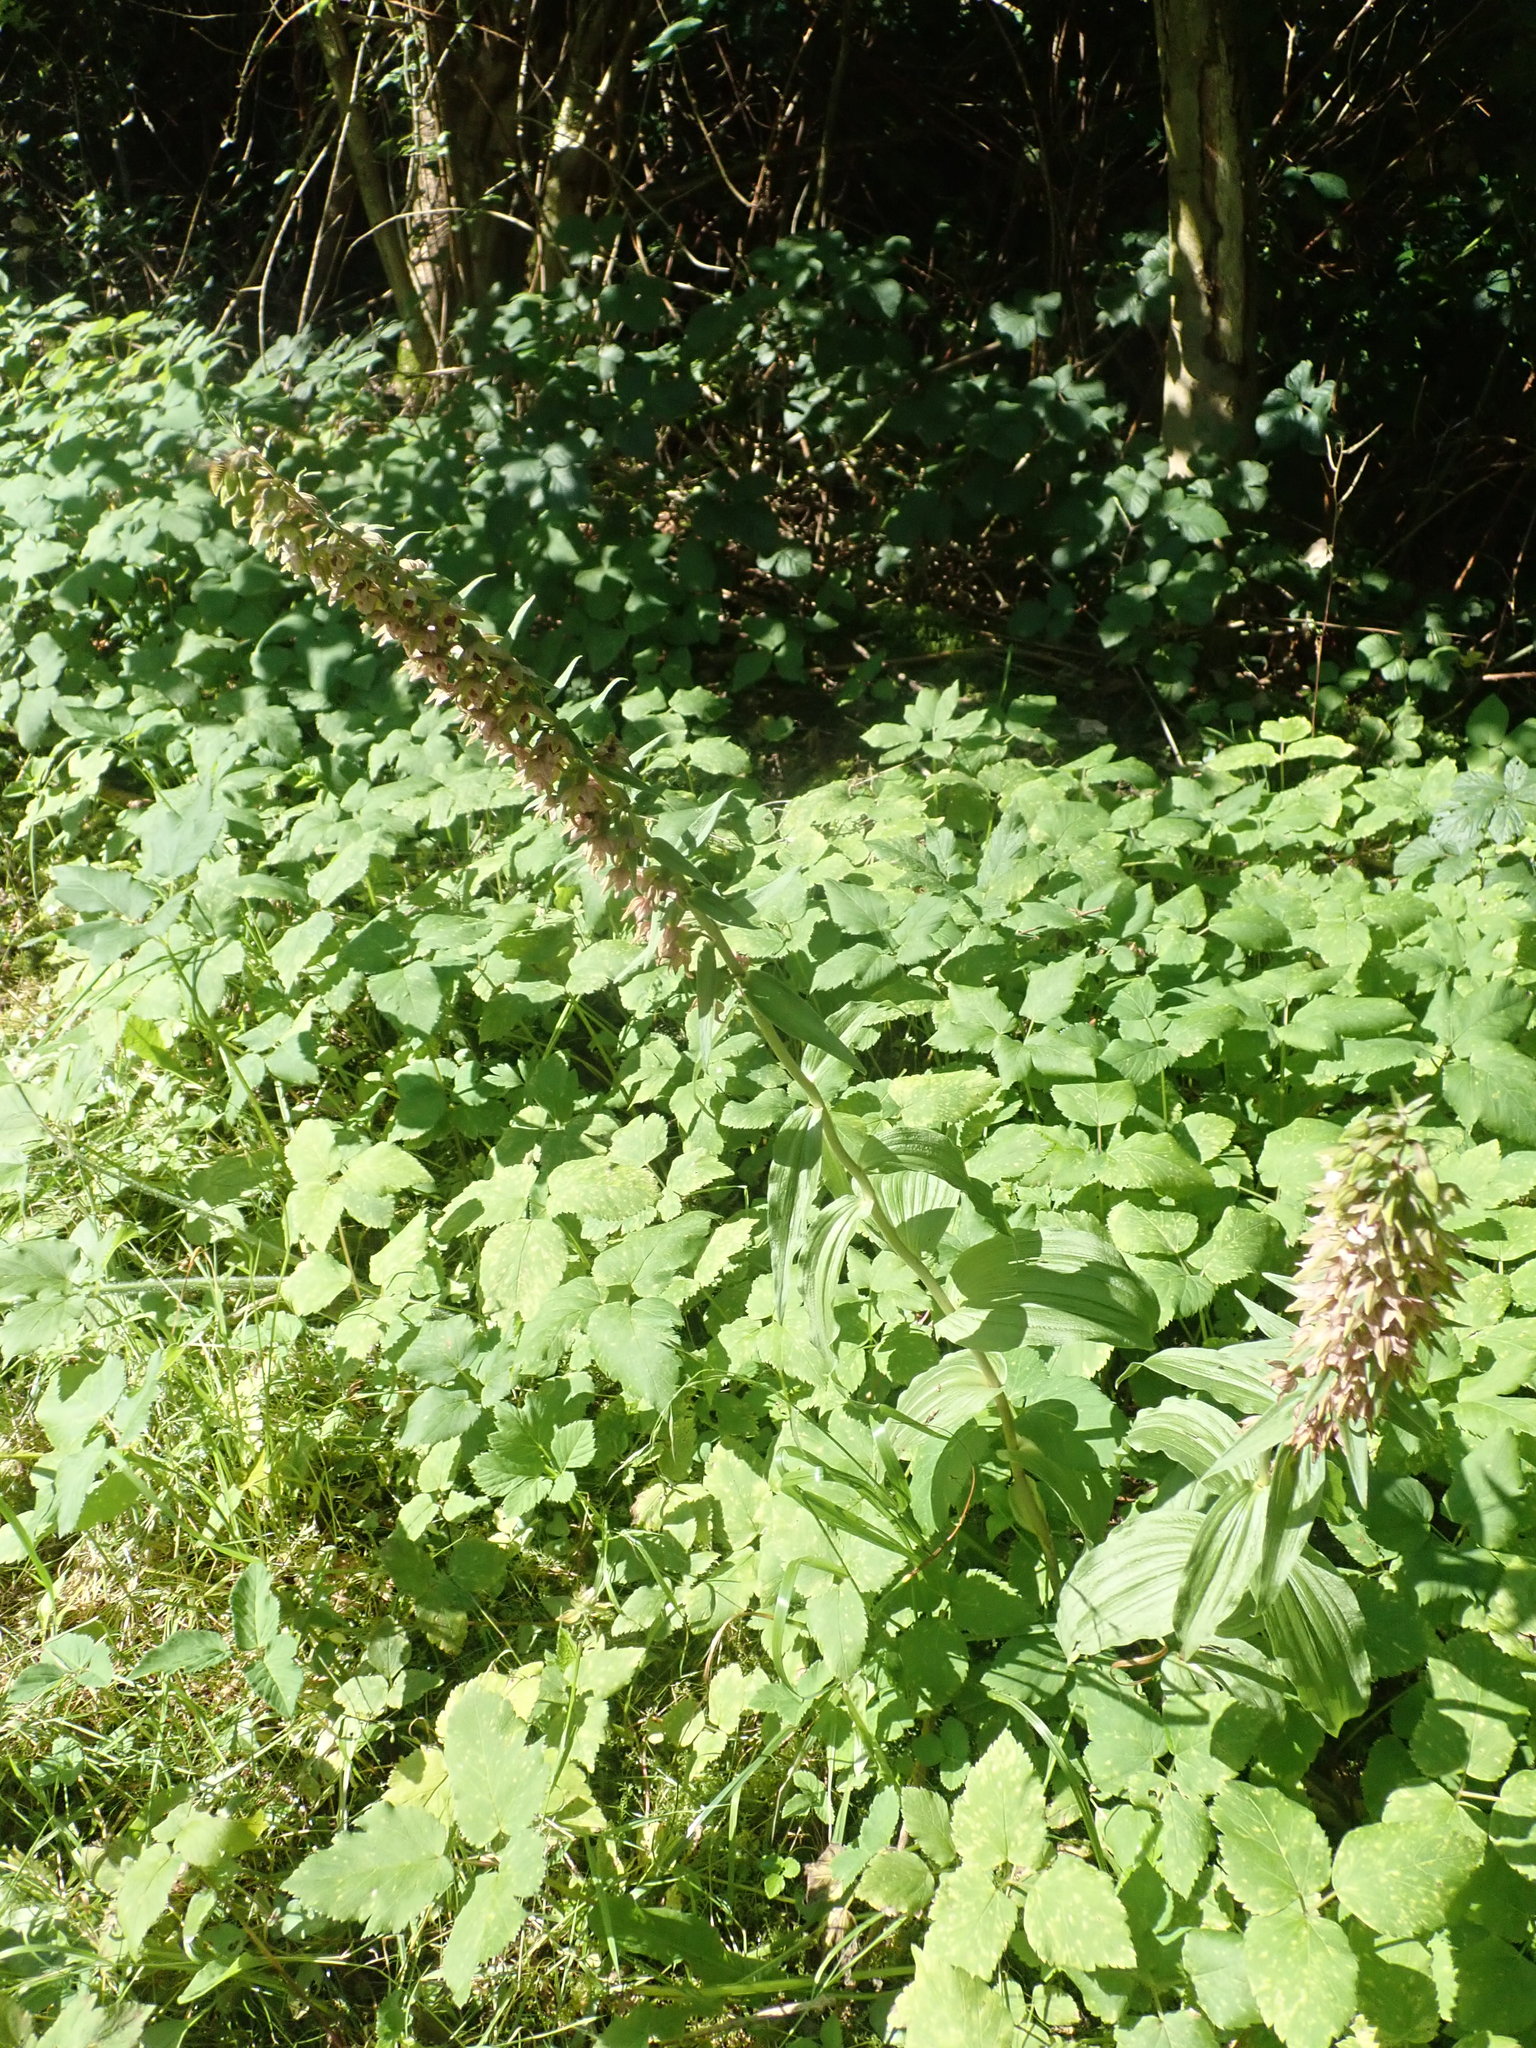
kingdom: Plantae
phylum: Tracheophyta
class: Liliopsida
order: Asparagales
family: Orchidaceae
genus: Epipactis
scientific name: Epipactis helleborine
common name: Broad-leaved helleborine
